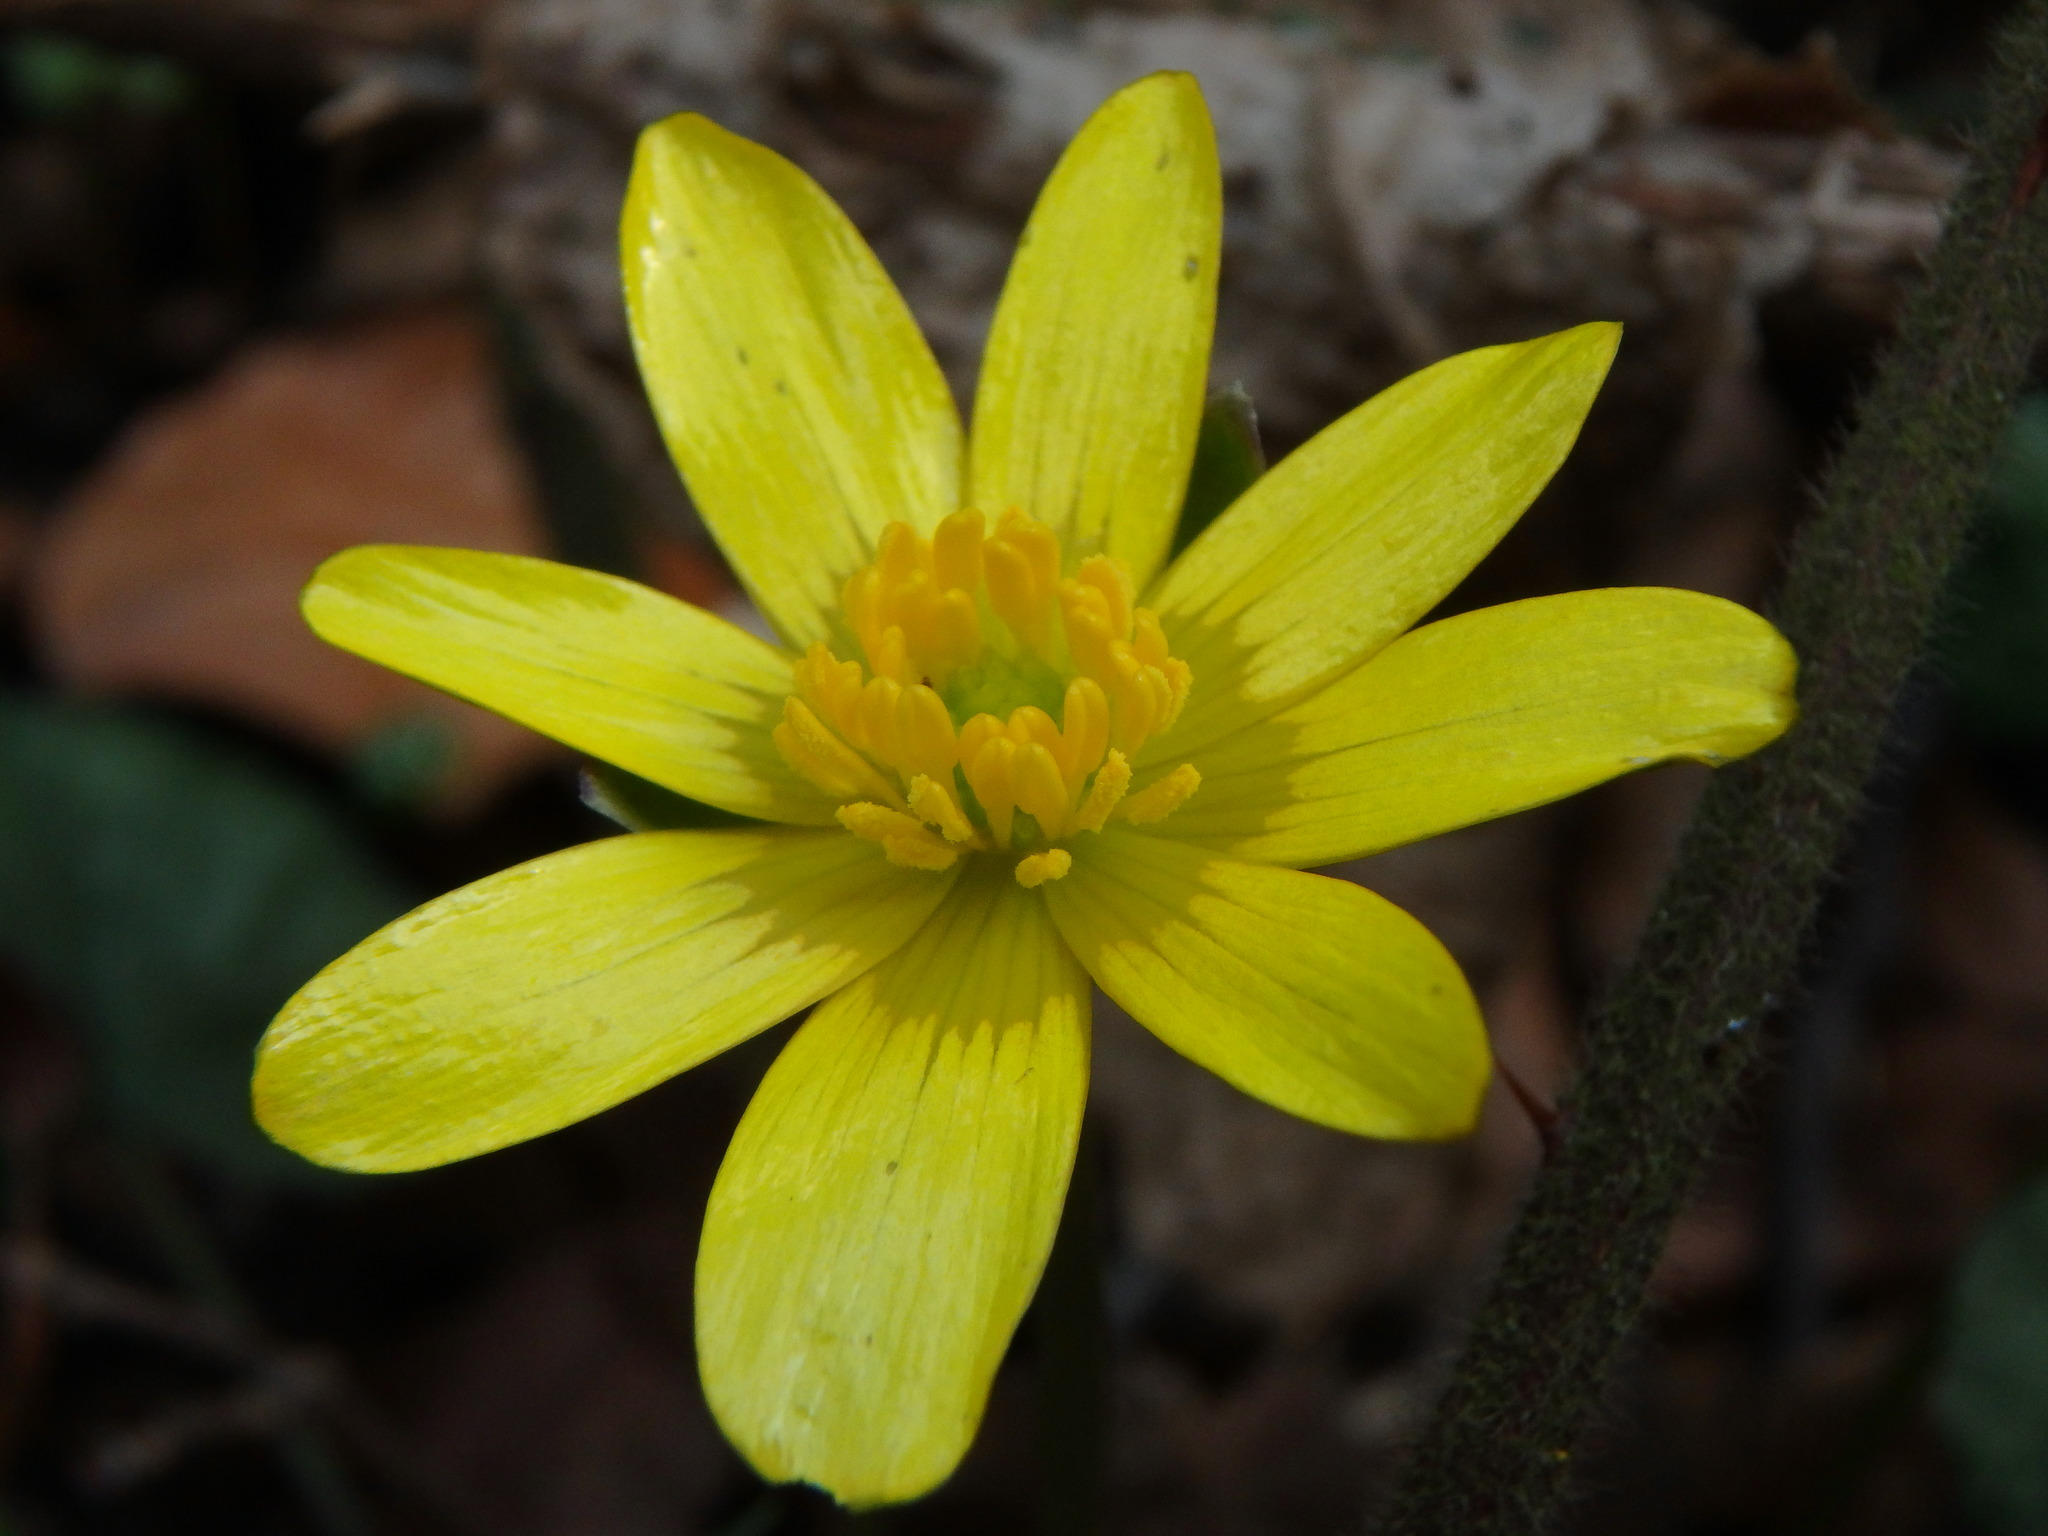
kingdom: Plantae
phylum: Tracheophyta
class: Magnoliopsida
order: Ranunculales
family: Ranunculaceae
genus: Ficaria
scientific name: Ficaria verna
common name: Lesser celandine
